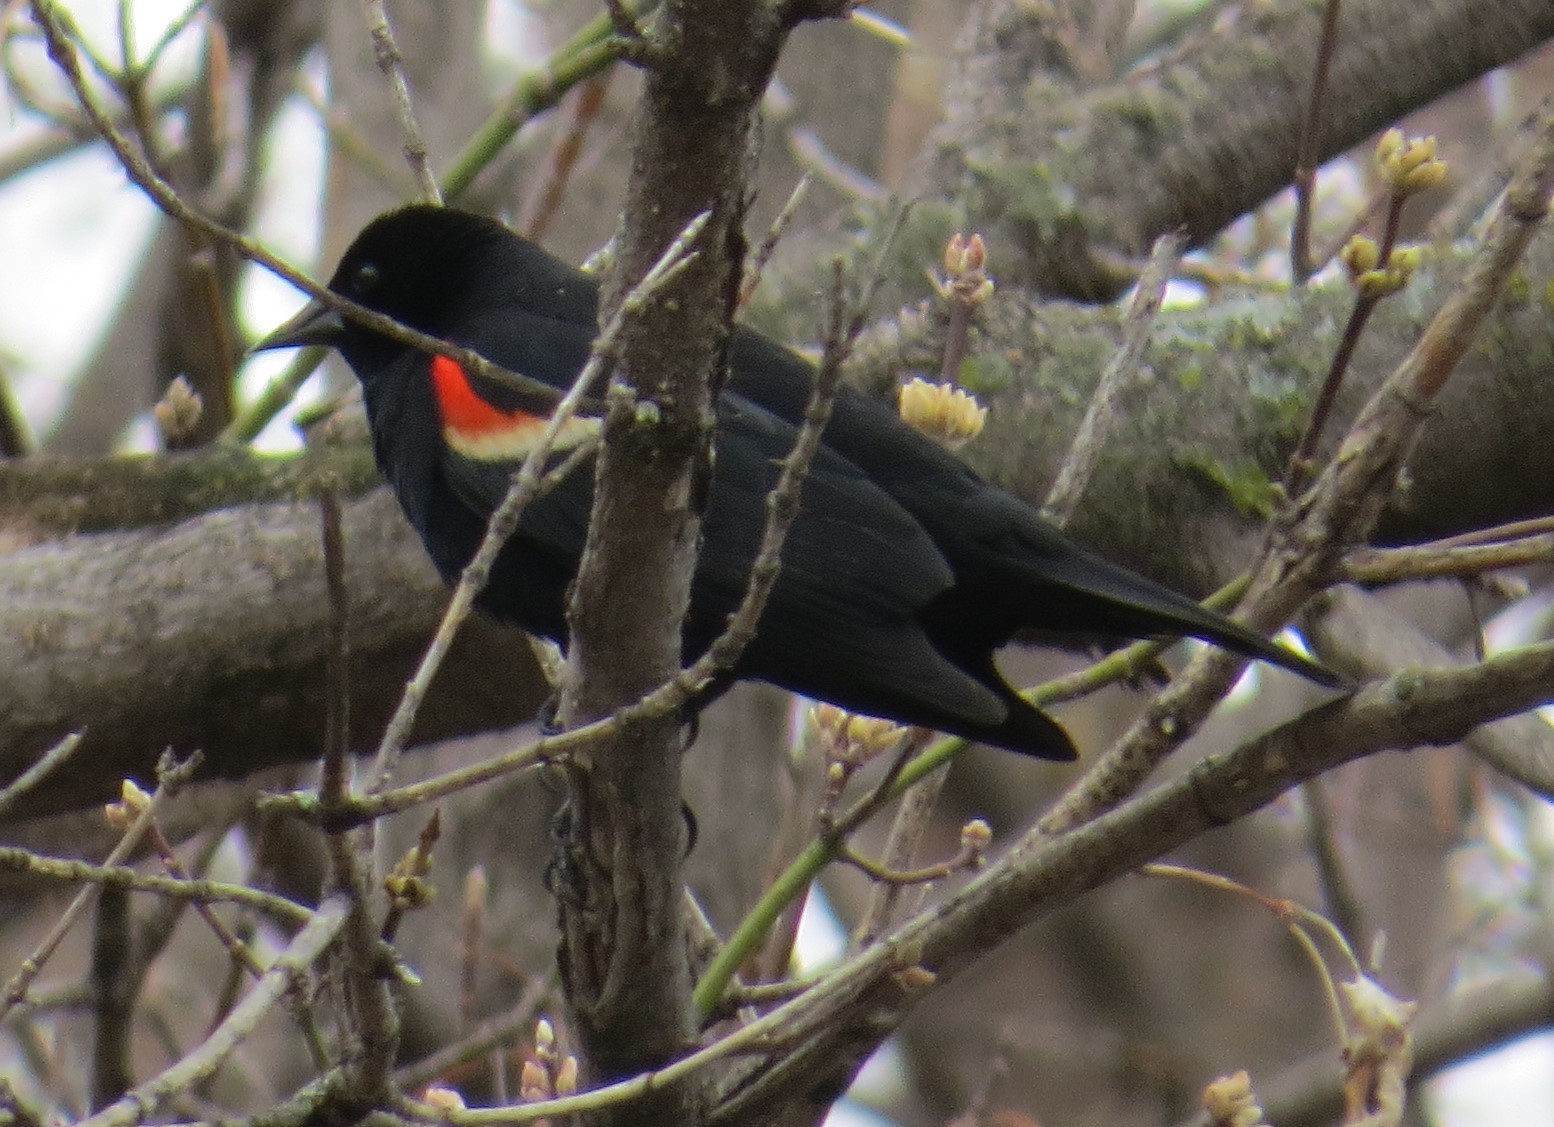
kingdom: Animalia
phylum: Chordata
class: Aves
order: Passeriformes
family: Icteridae
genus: Agelaius
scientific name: Agelaius phoeniceus
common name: Red-winged blackbird
